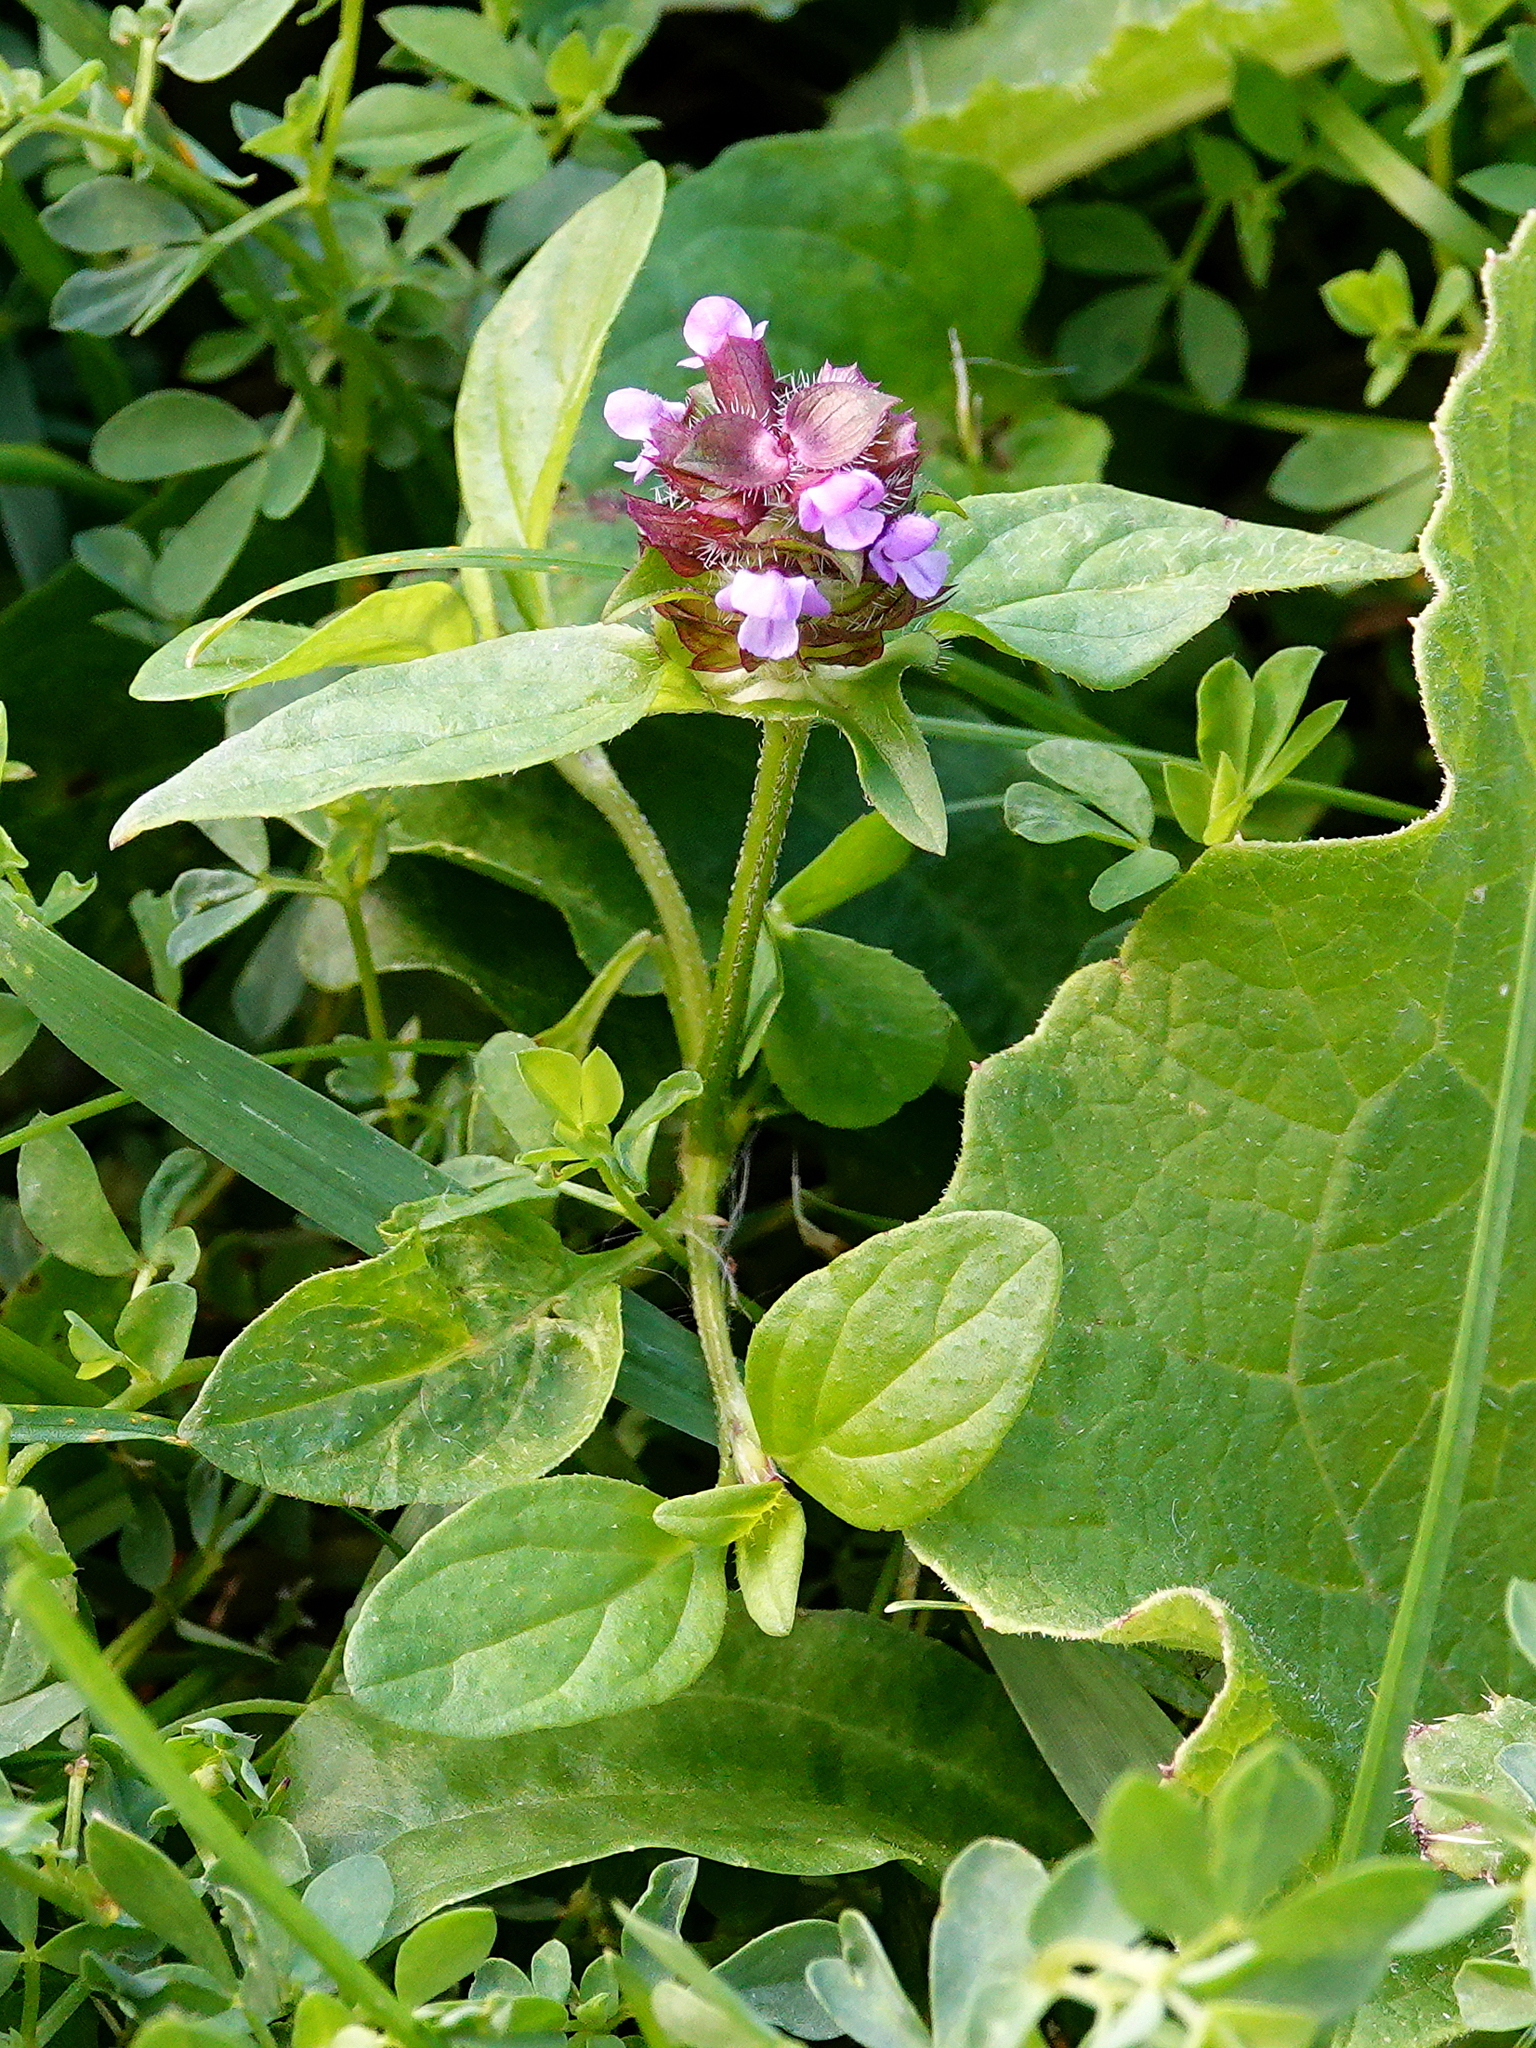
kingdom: Plantae
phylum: Tracheophyta
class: Magnoliopsida
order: Lamiales
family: Lamiaceae
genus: Prunella
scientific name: Prunella vulgaris
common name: Heal-all
